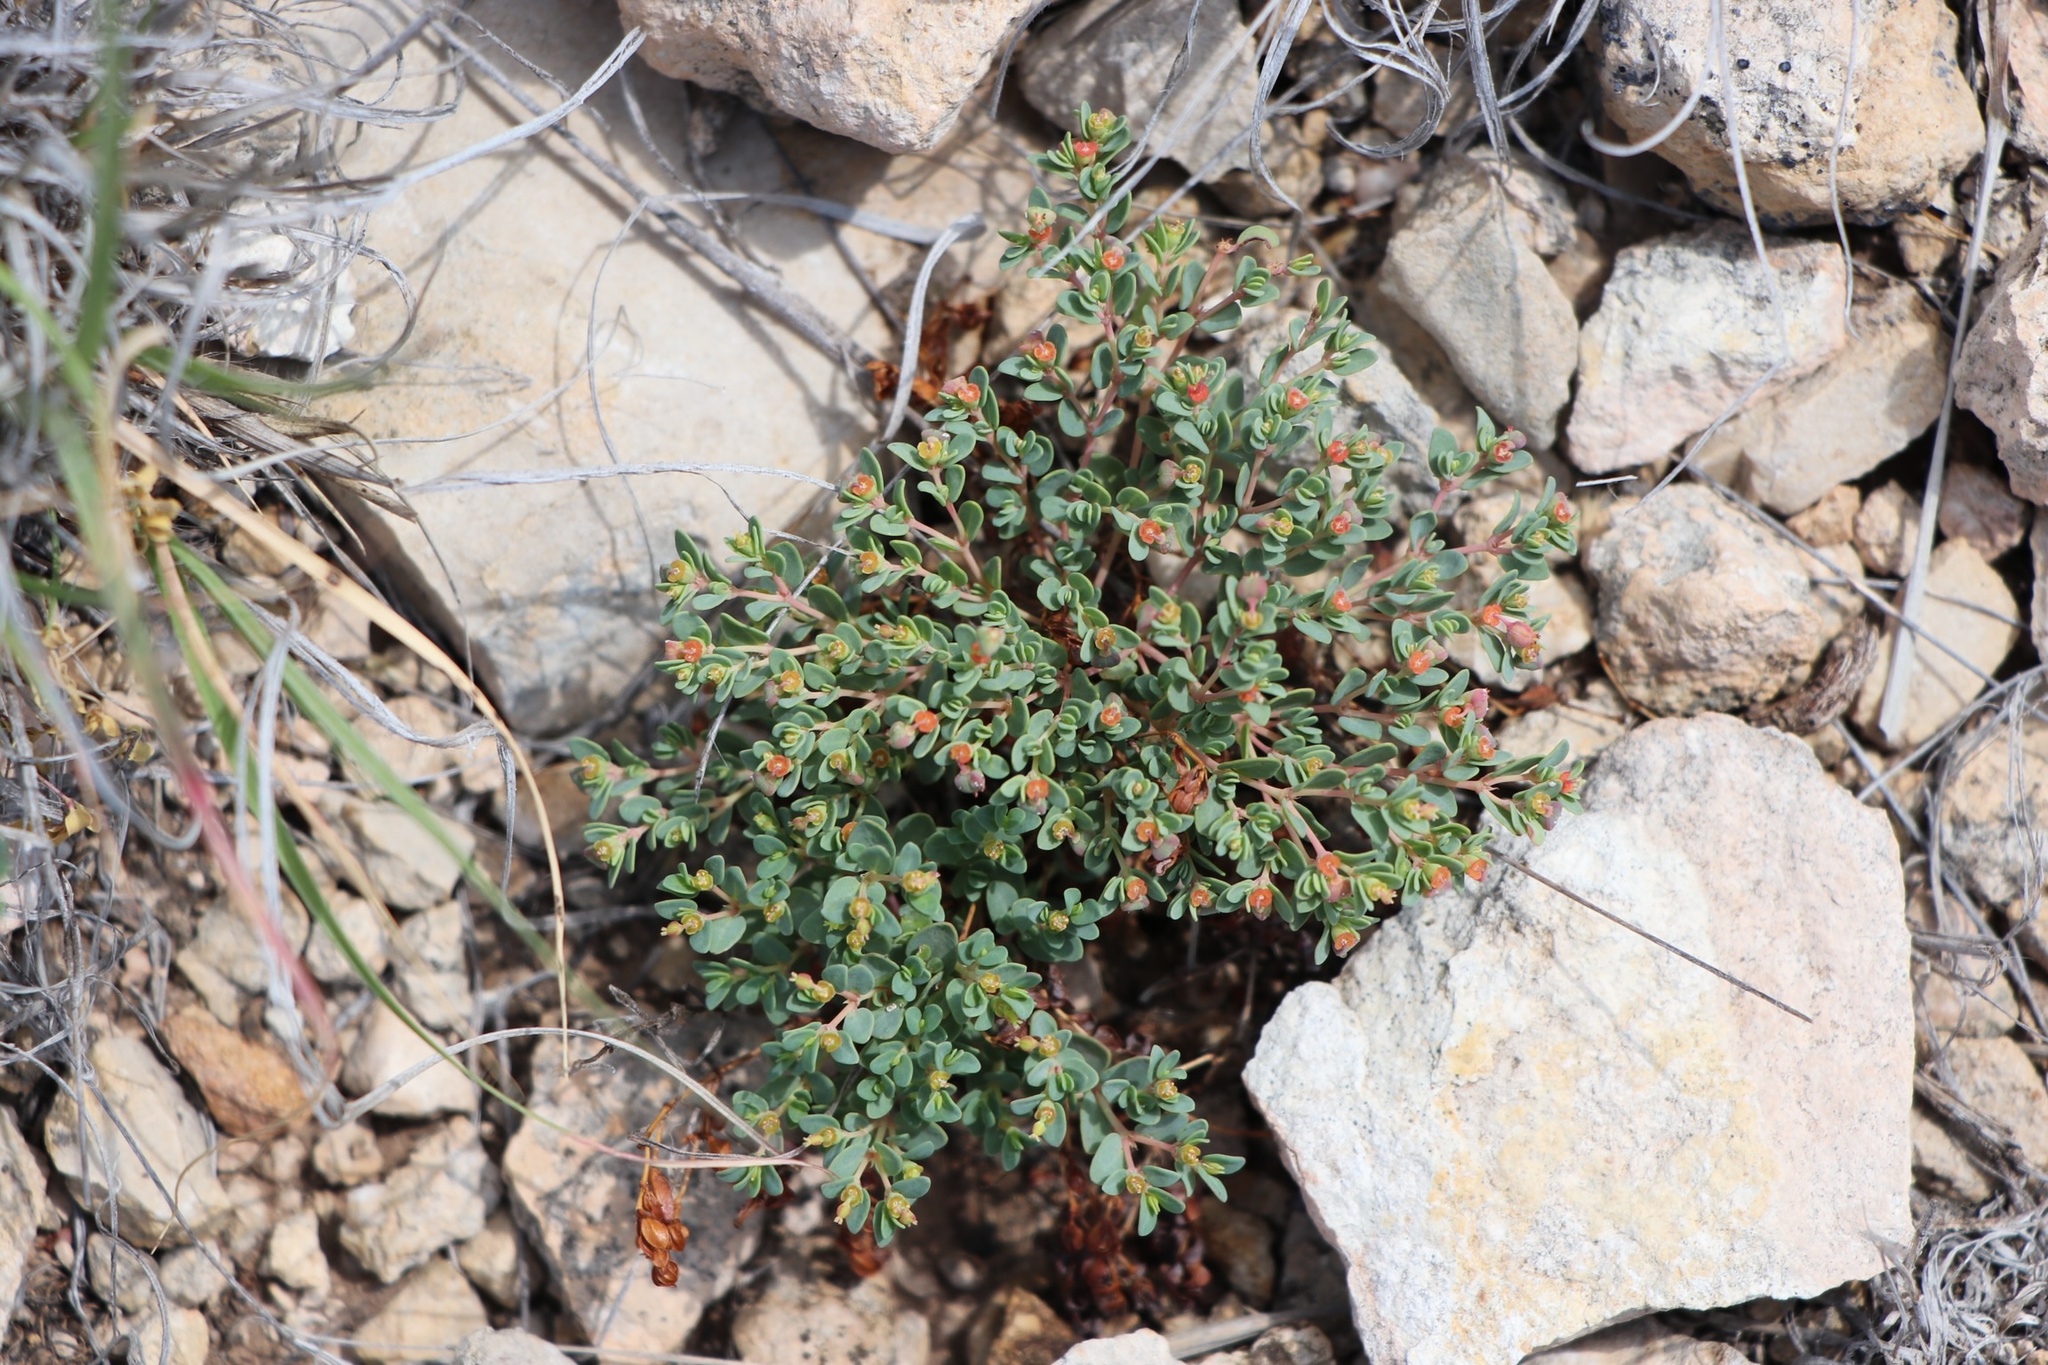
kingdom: Plantae
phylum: Tracheophyta
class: Magnoliopsida
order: Malpighiales
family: Euphorbiaceae
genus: Euphorbia
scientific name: Euphorbia fendleri
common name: Fendler's euphorbia
